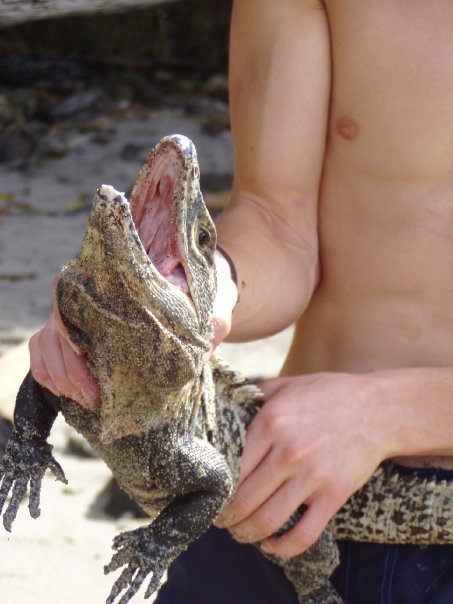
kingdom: Animalia
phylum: Chordata
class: Squamata
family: Iguanidae
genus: Ctenosaura
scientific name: Ctenosaura similis
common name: Black spiny-tailed iguana
